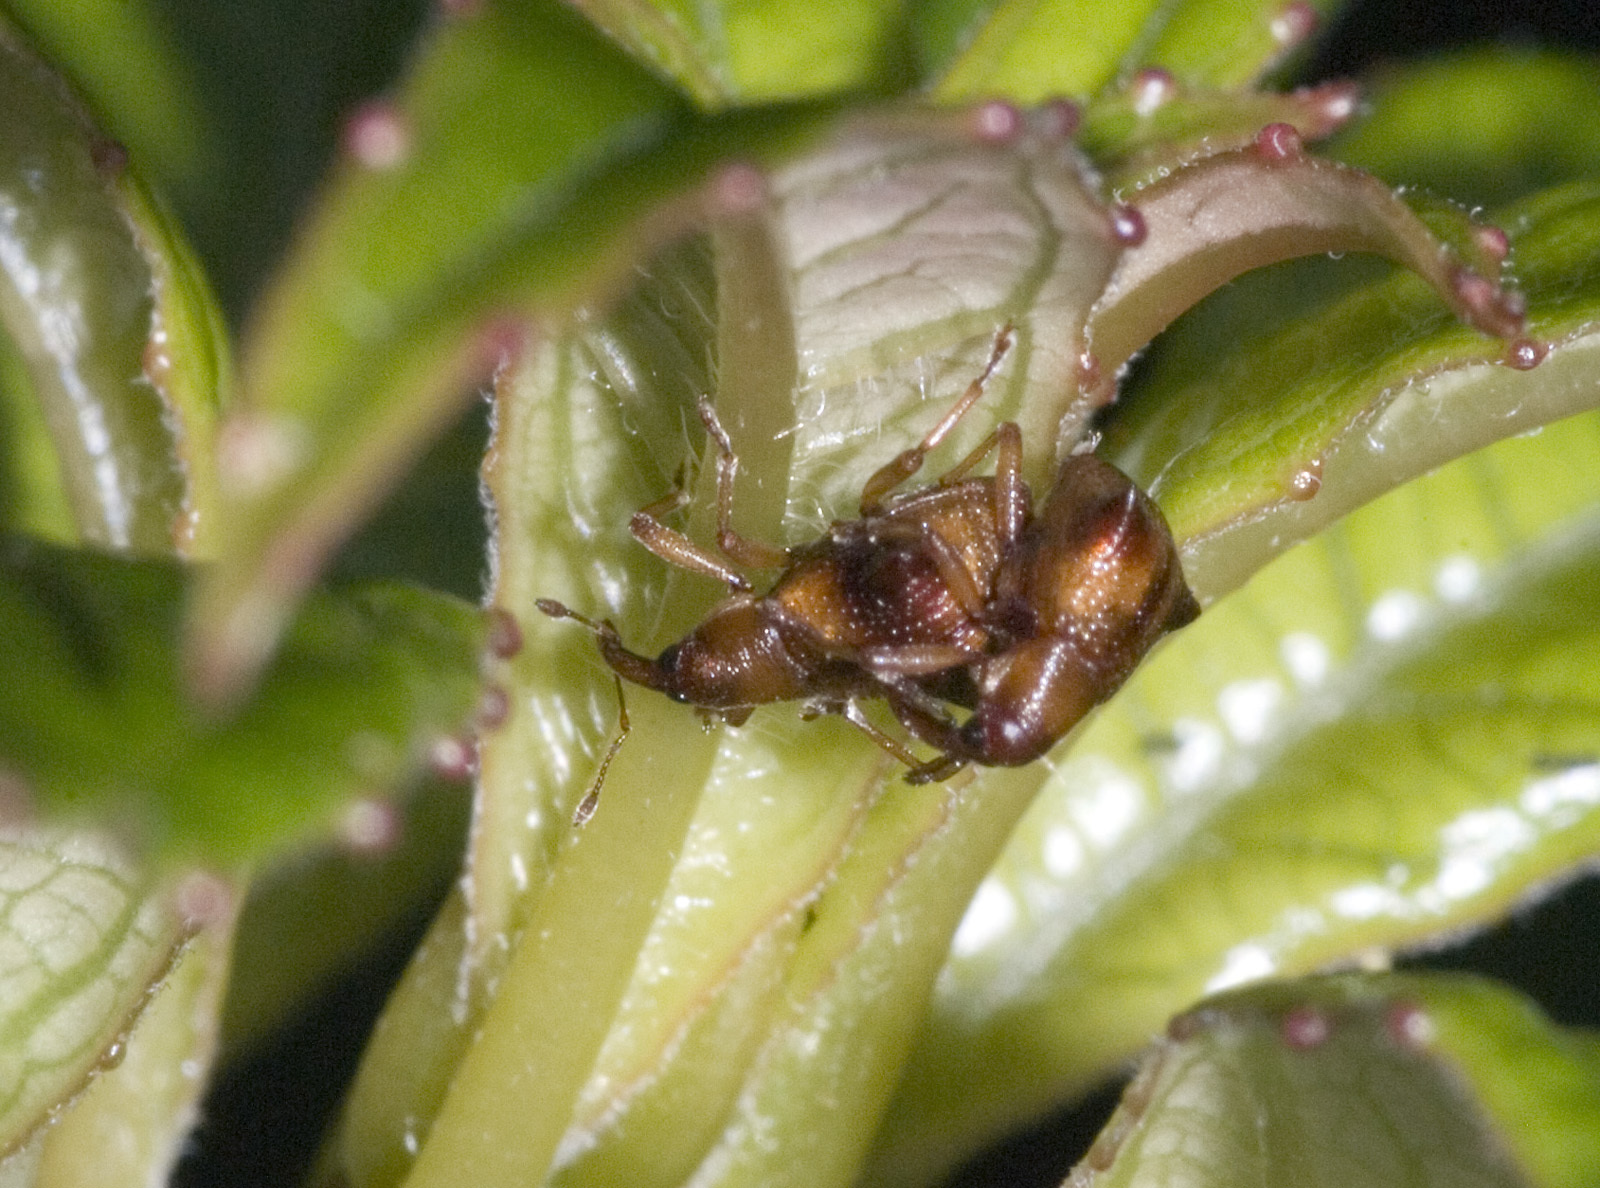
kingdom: Animalia
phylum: Arthropoda
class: Insecta
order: Coleoptera
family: Curculionidae
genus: Oropterus
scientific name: Oropterus coniger
